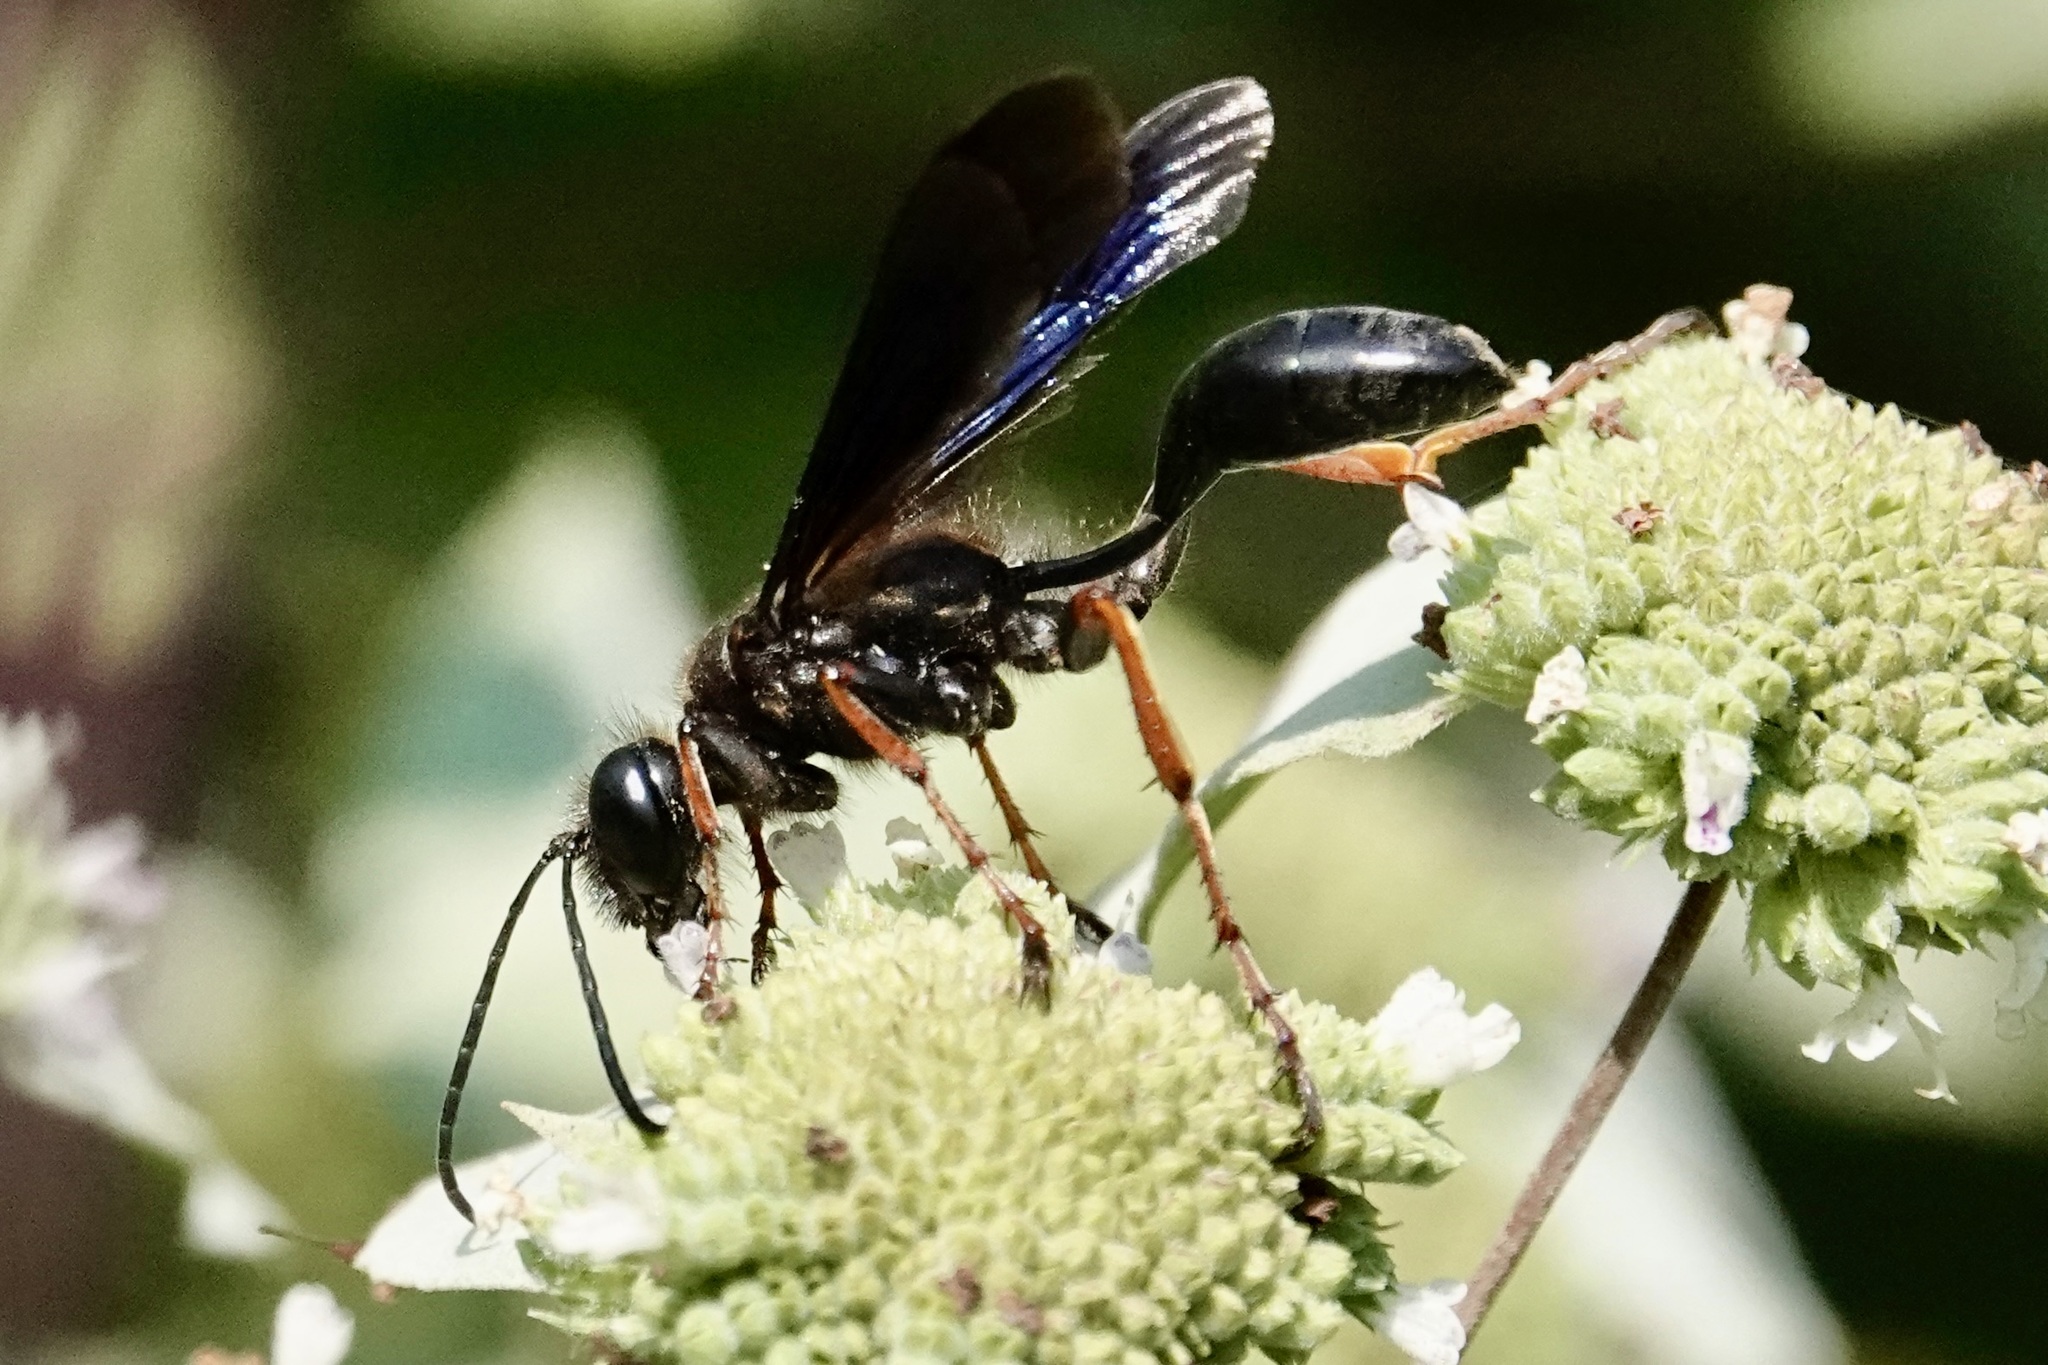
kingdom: Animalia
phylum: Arthropoda
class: Insecta
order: Hymenoptera
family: Sphecidae
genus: Isodontia
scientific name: Isodontia auripes
